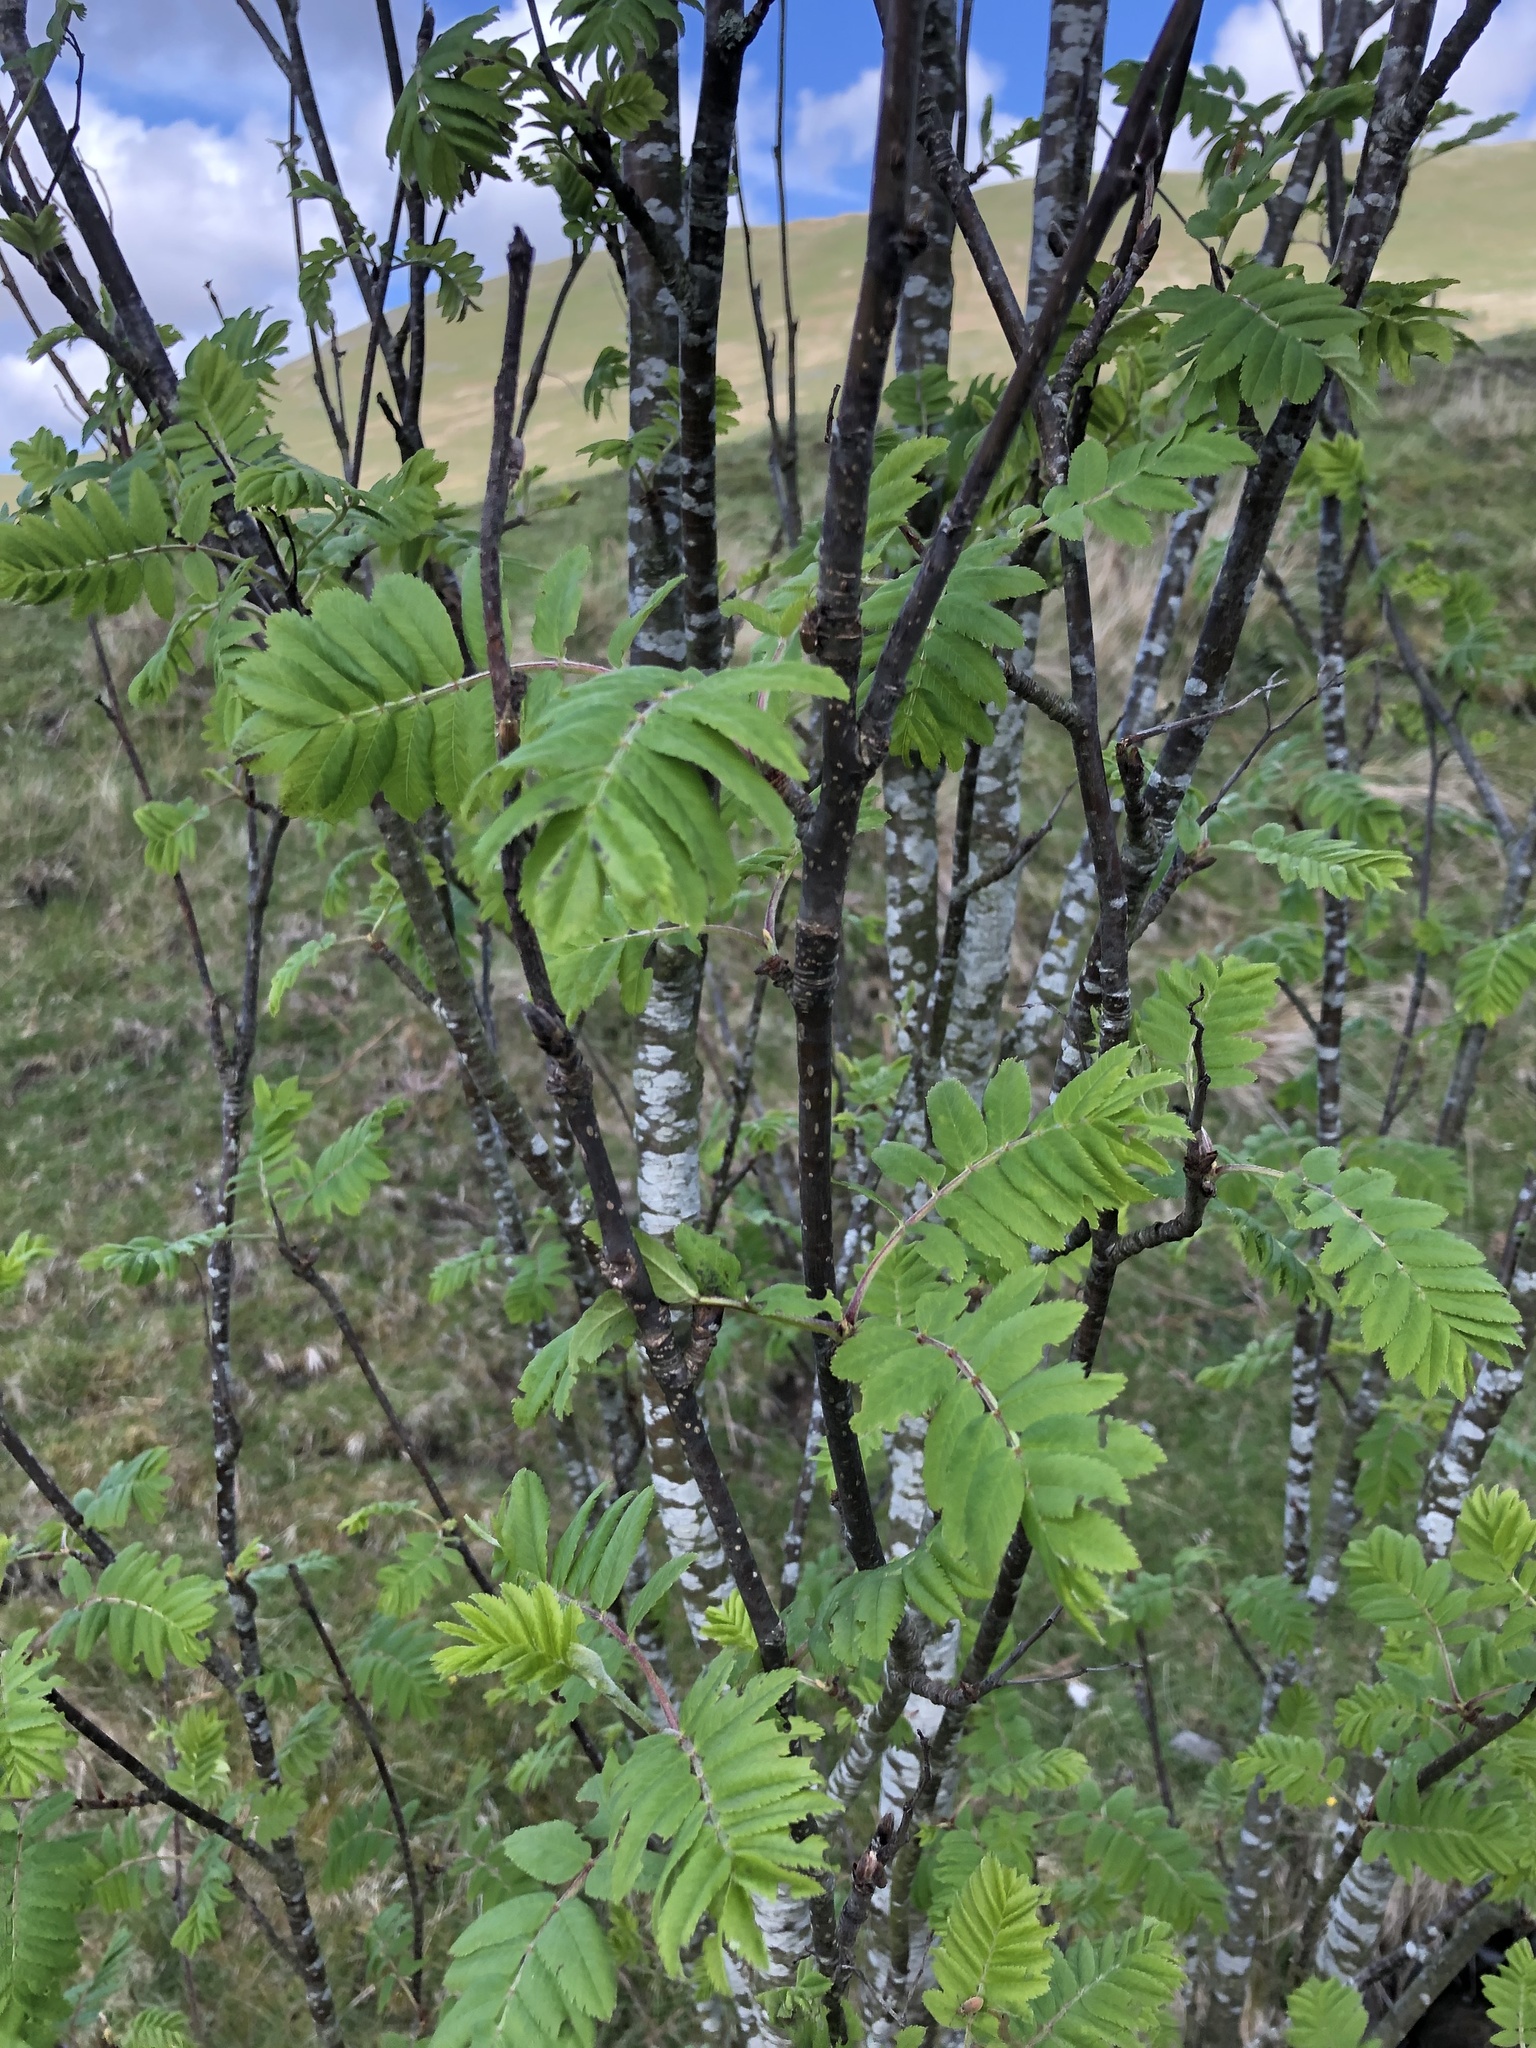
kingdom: Plantae
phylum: Tracheophyta
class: Magnoliopsida
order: Rosales
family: Rosaceae
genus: Sorbus
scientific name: Sorbus aucuparia
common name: Rowan
